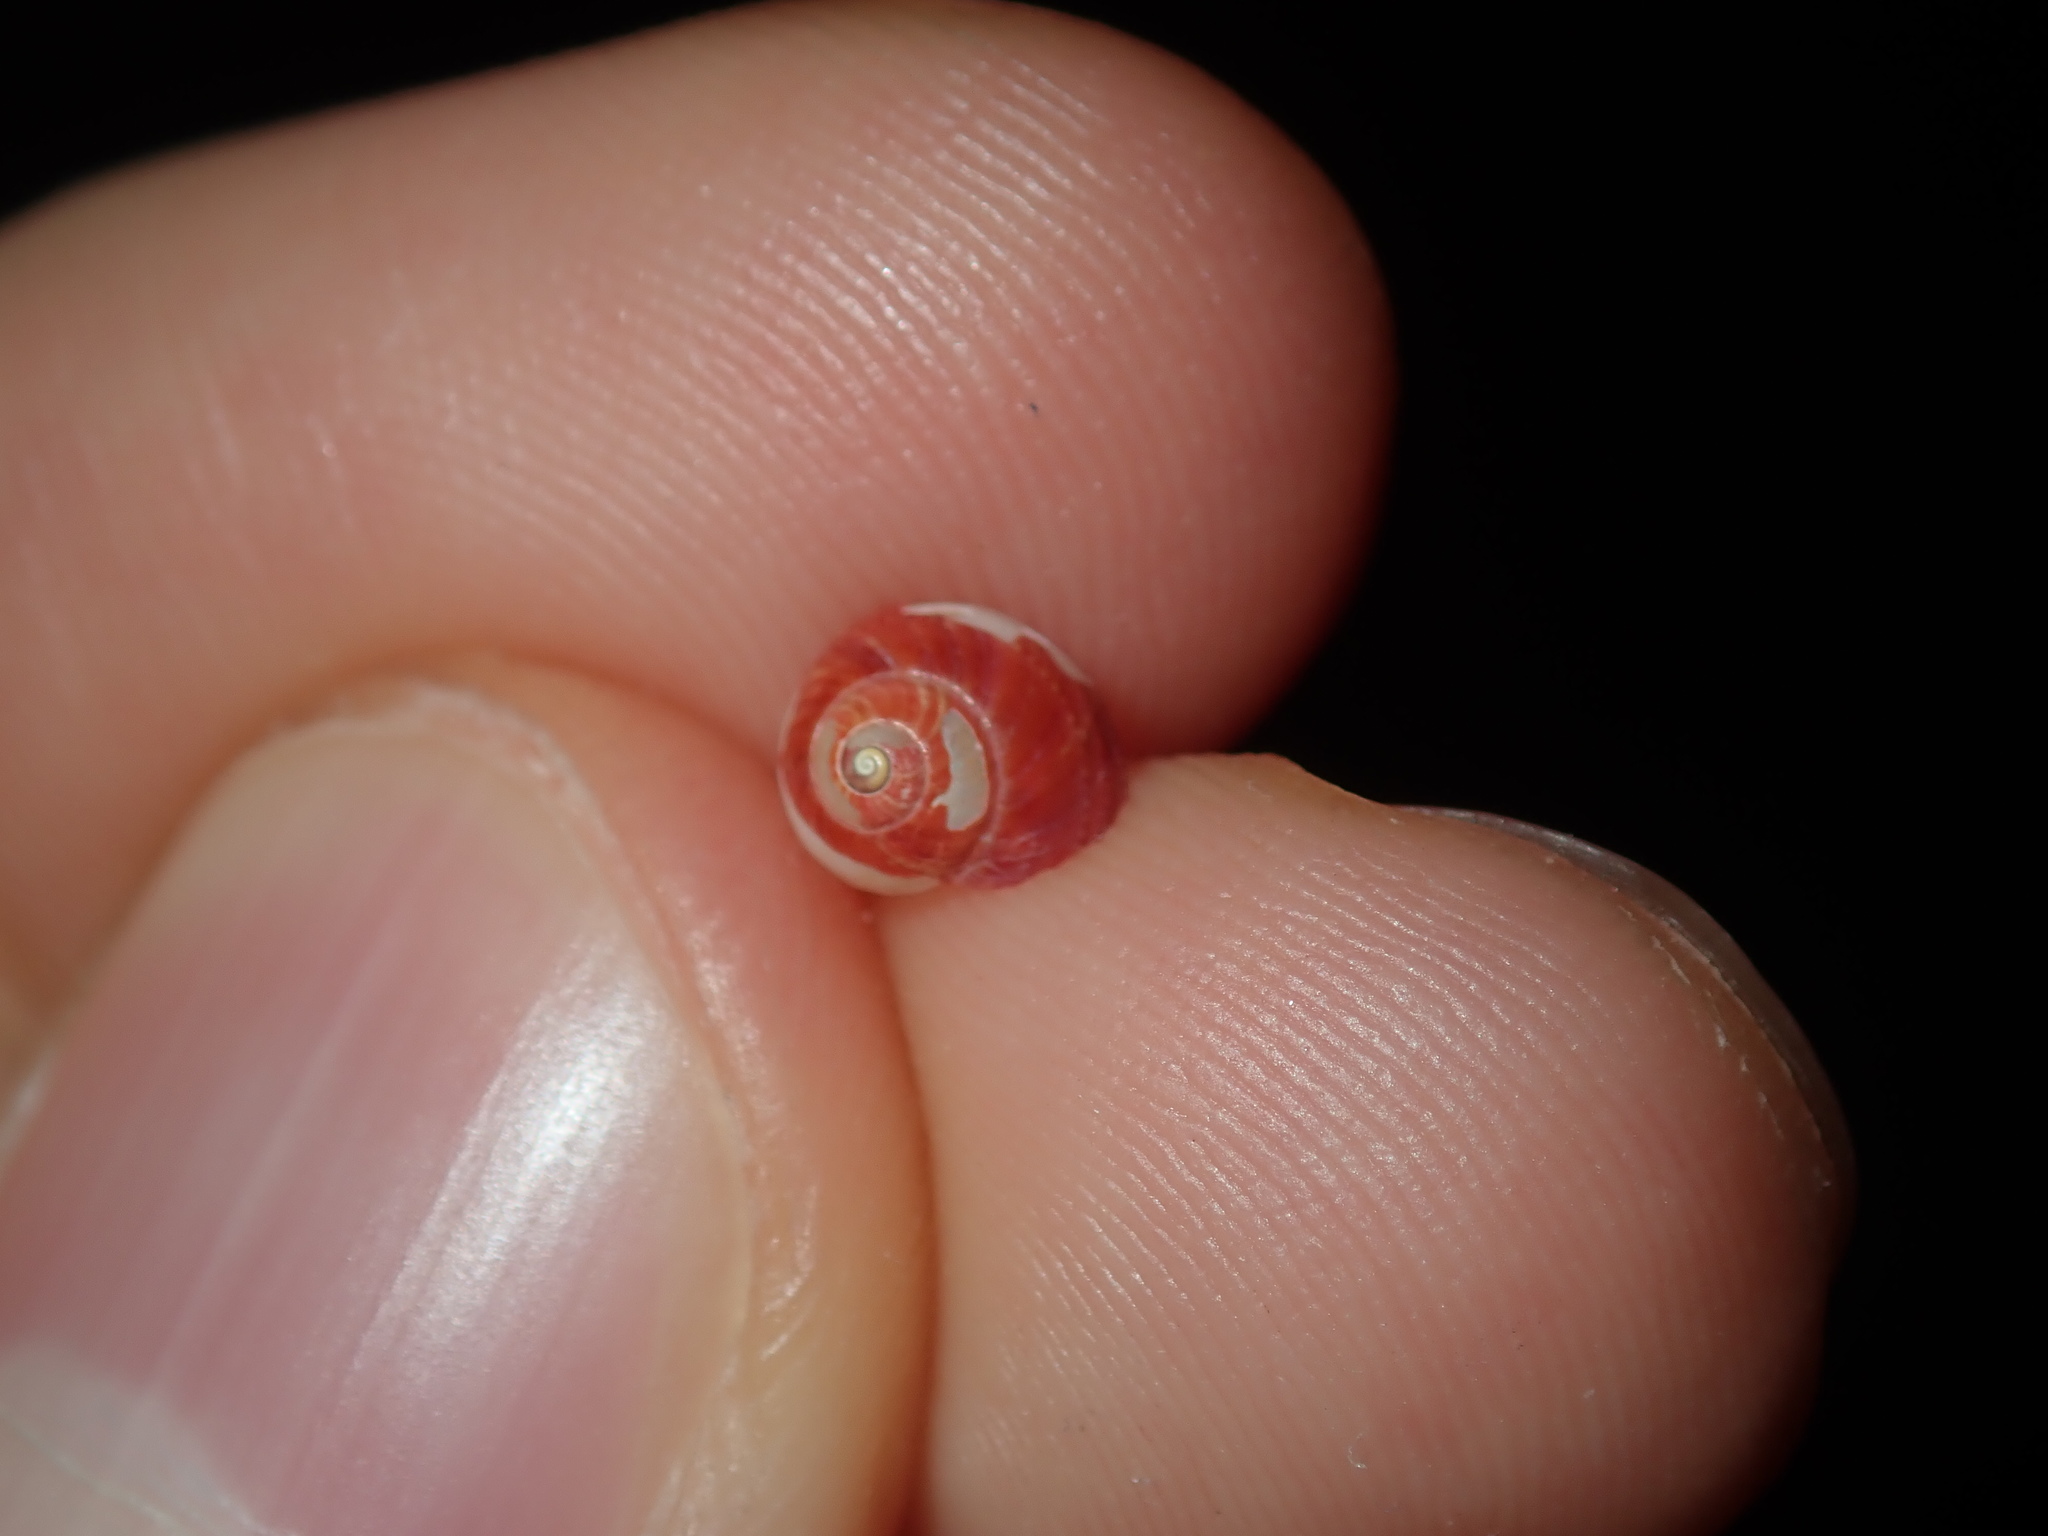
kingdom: Animalia
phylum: Mollusca
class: Gastropoda
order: Trochida
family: Trochidae
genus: Cantharidella
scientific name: Cantharidella picturata
